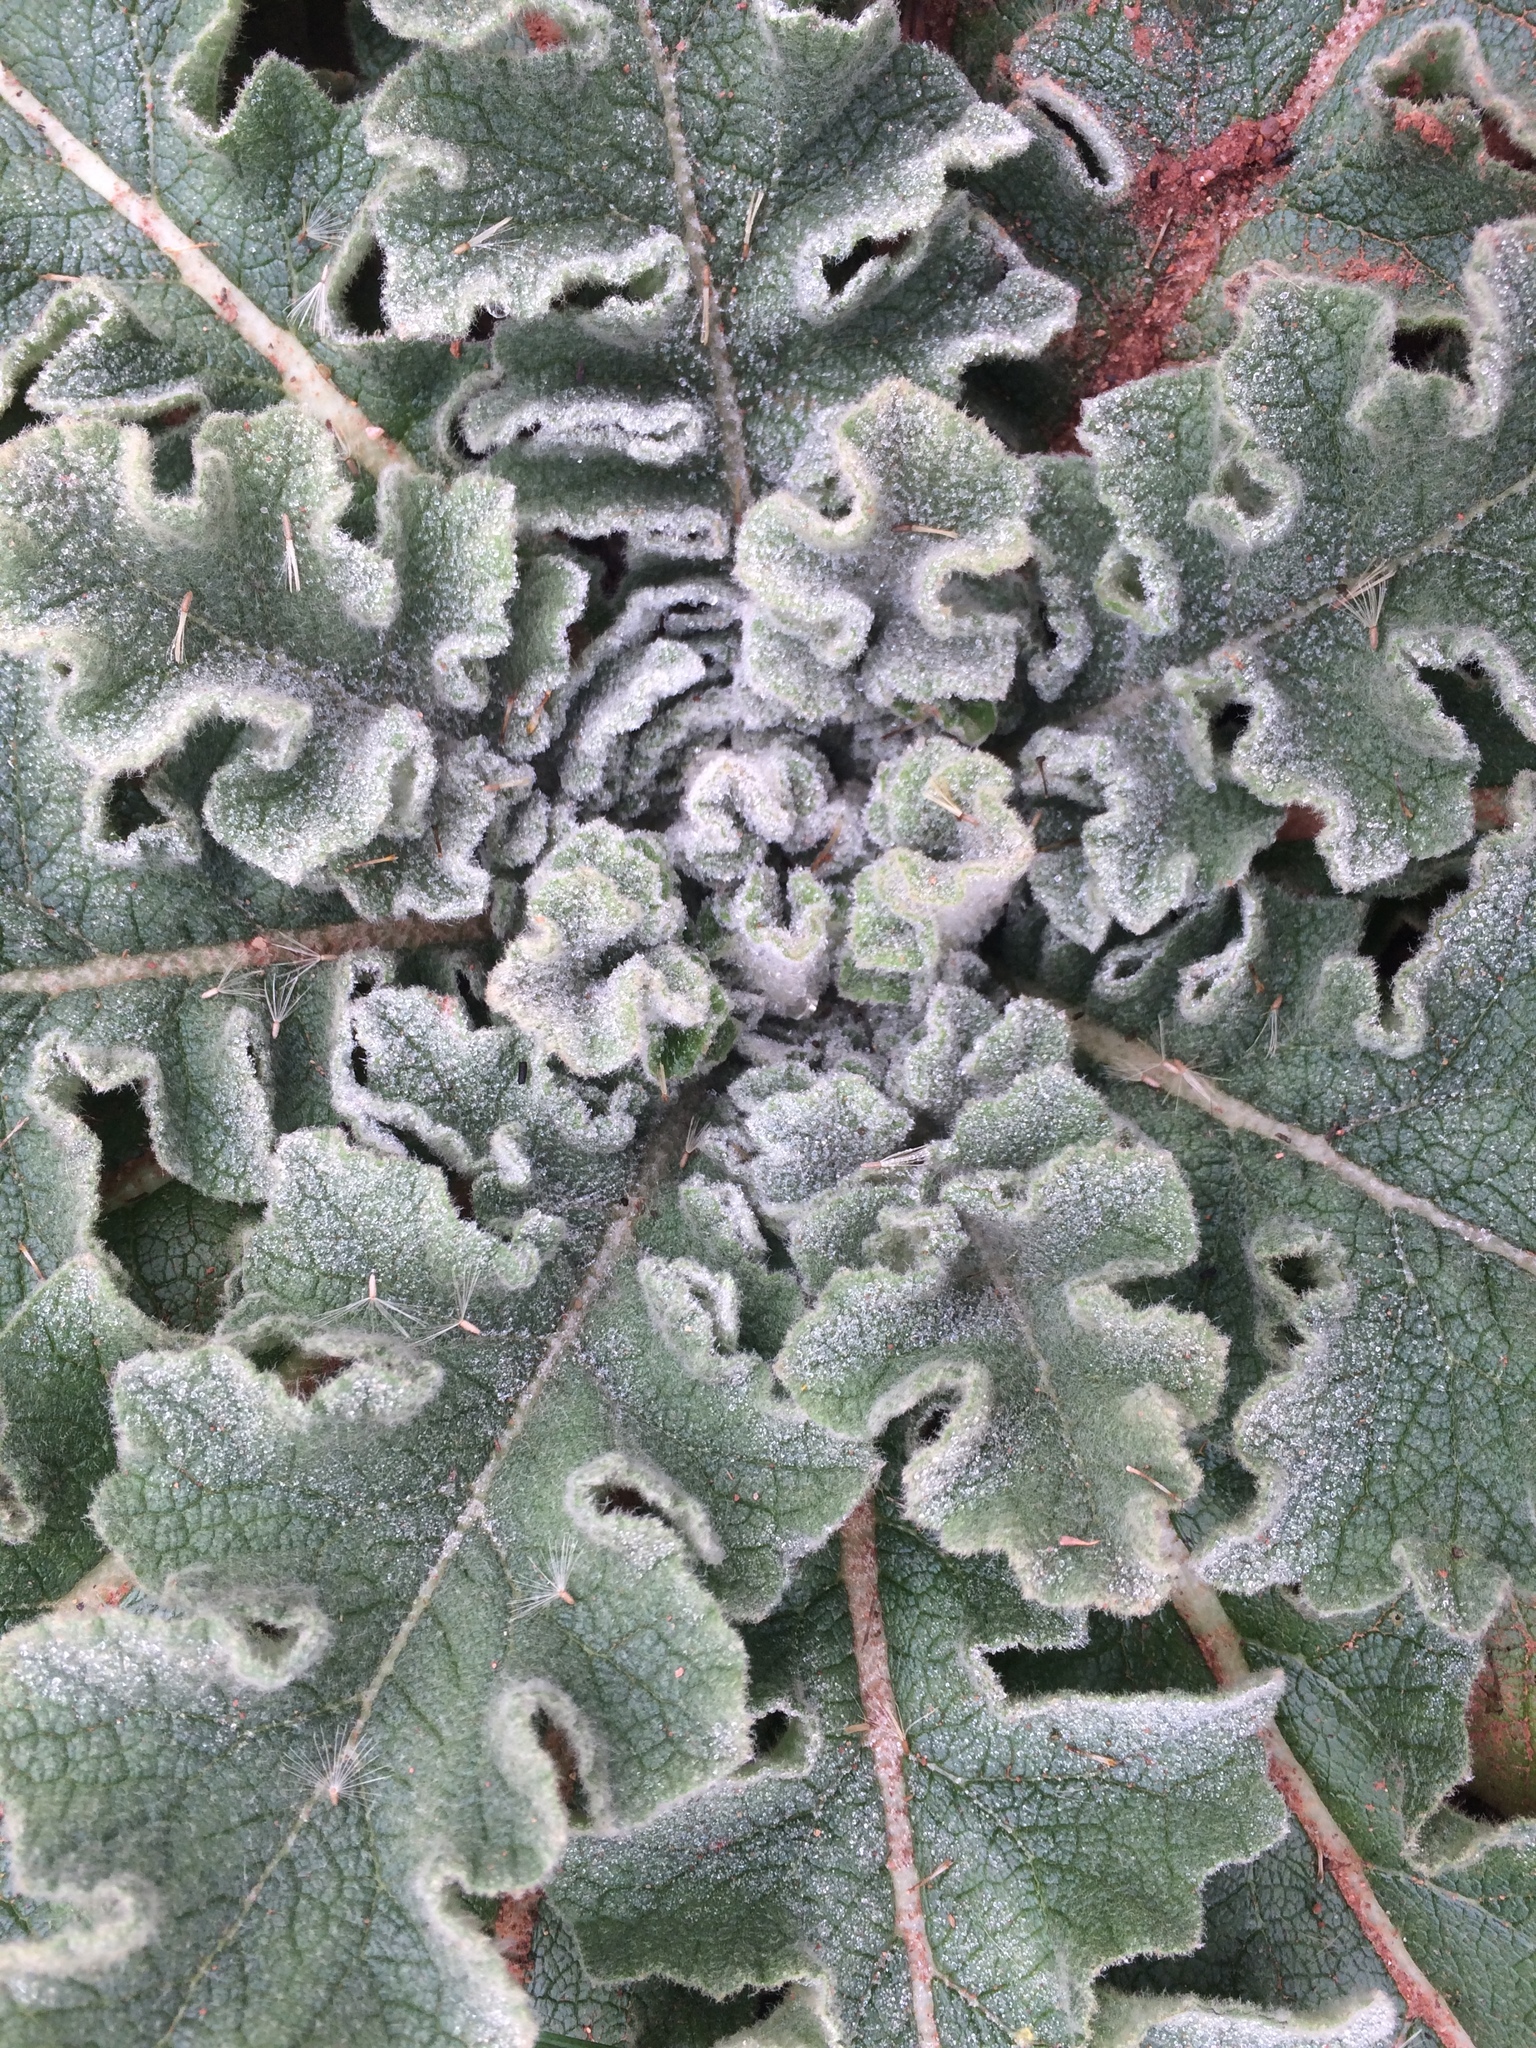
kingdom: Plantae
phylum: Tracheophyta
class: Magnoliopsida
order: Lamiales
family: Scrophulariaceae
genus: Verbascum
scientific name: Verbascum sinuatum
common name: Wavyleaf mullein
